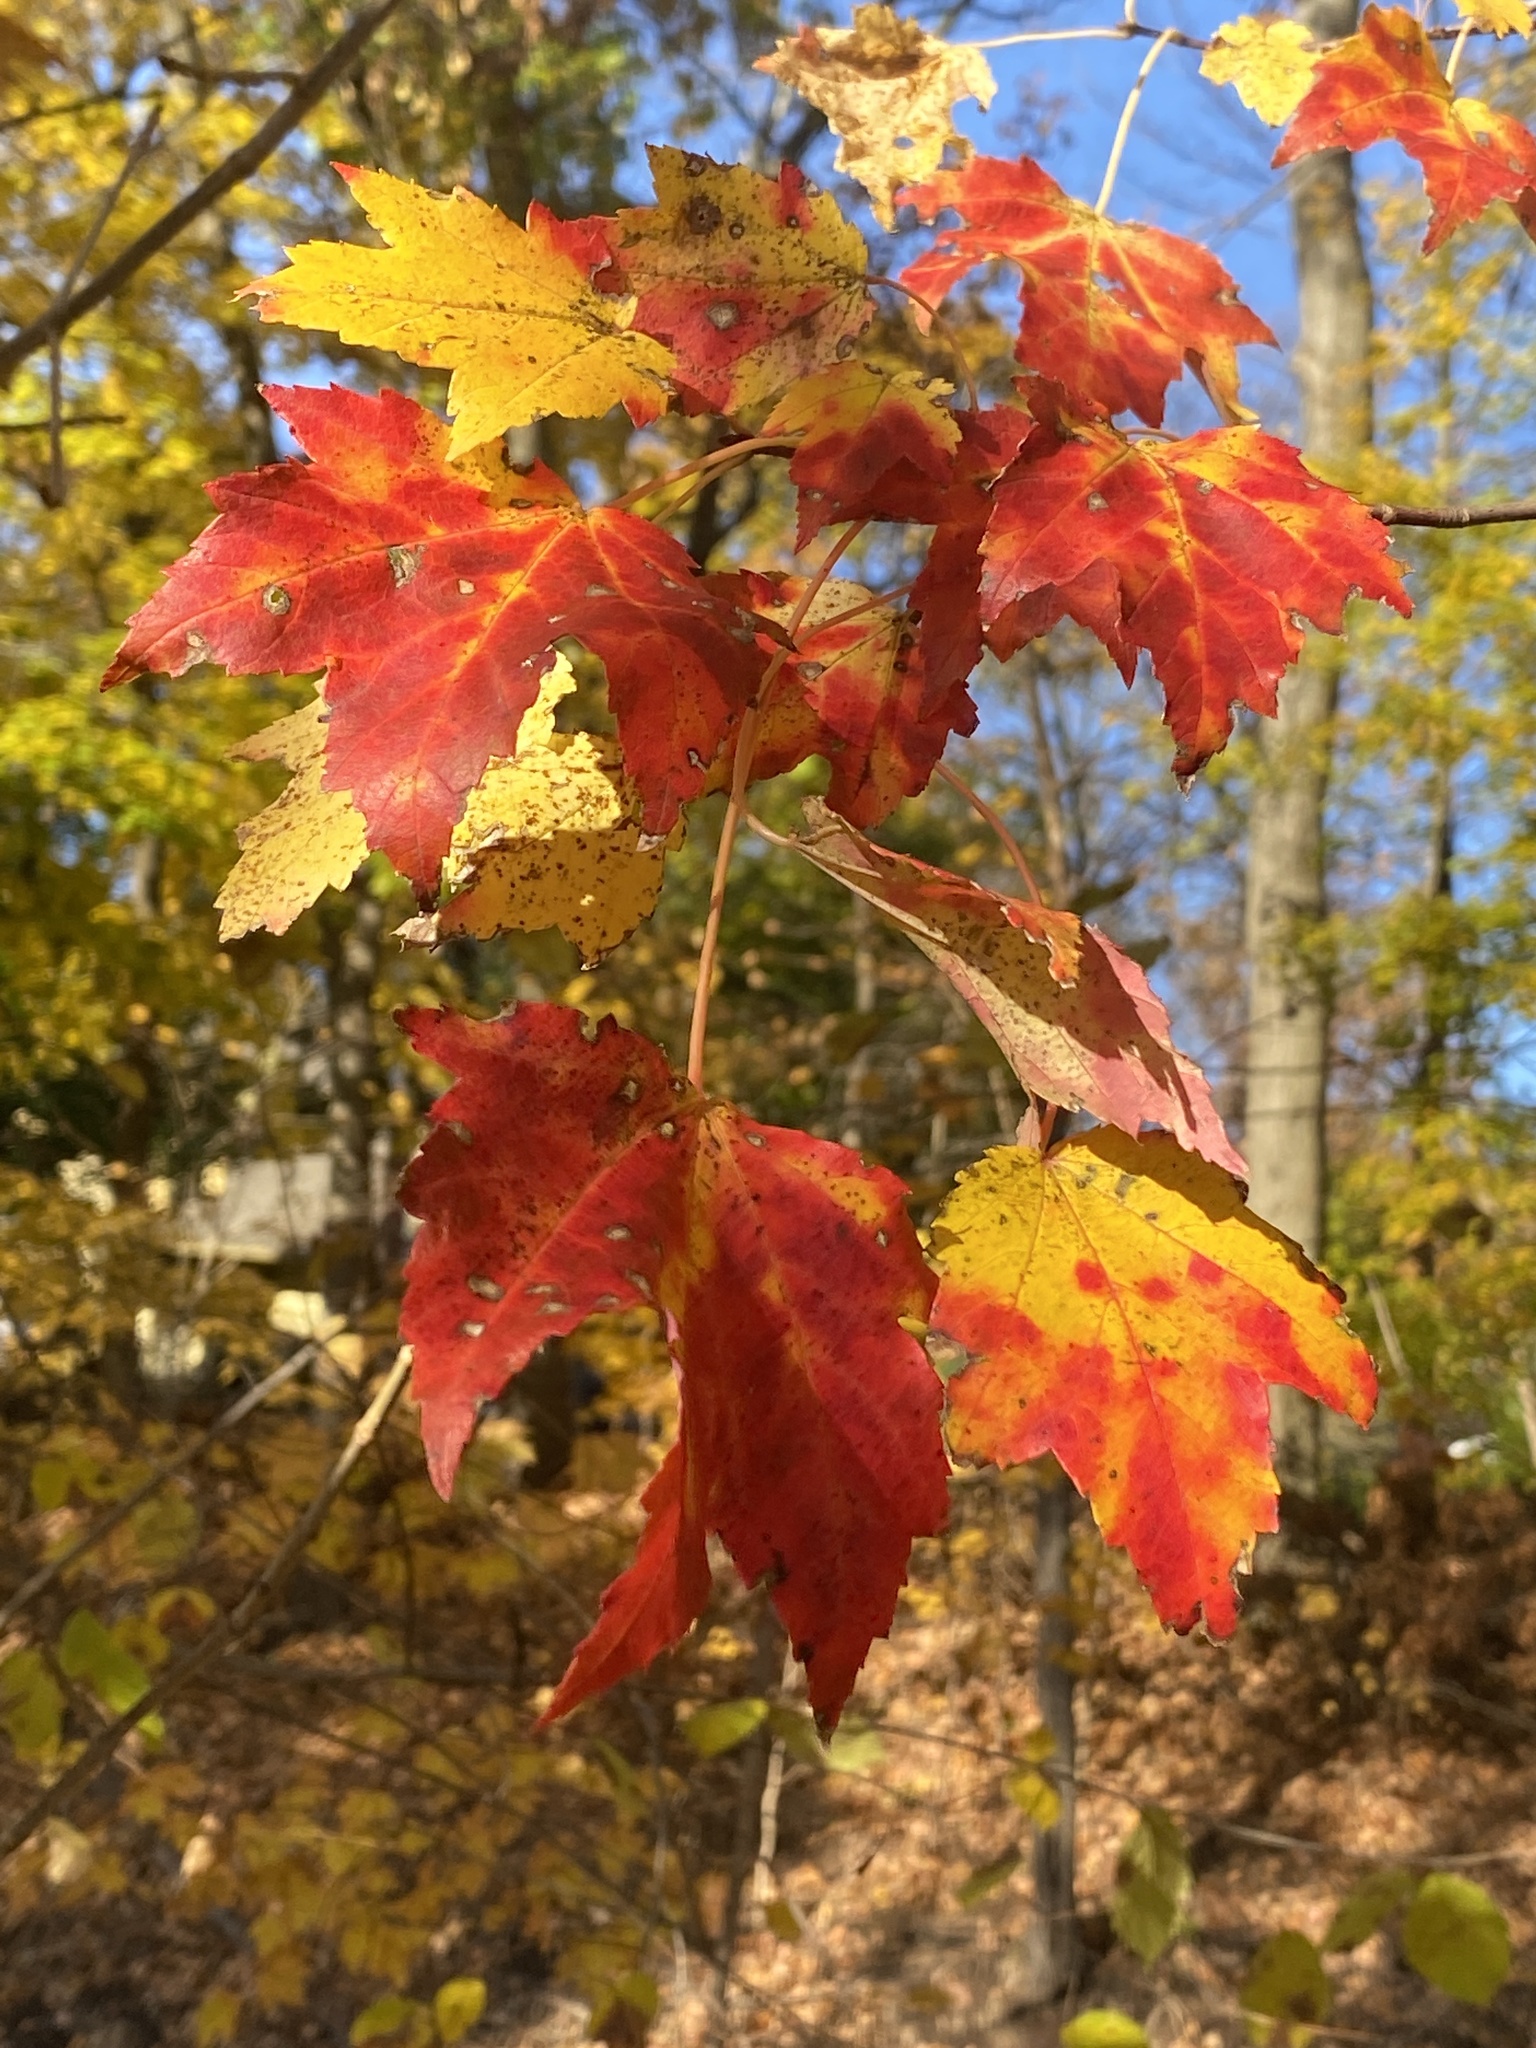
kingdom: Plantae
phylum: Tracheophyta
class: Magnoliopsida
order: Sapindales
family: Sapindaceae
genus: Acer
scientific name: Acer rubrum
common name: Red maple
